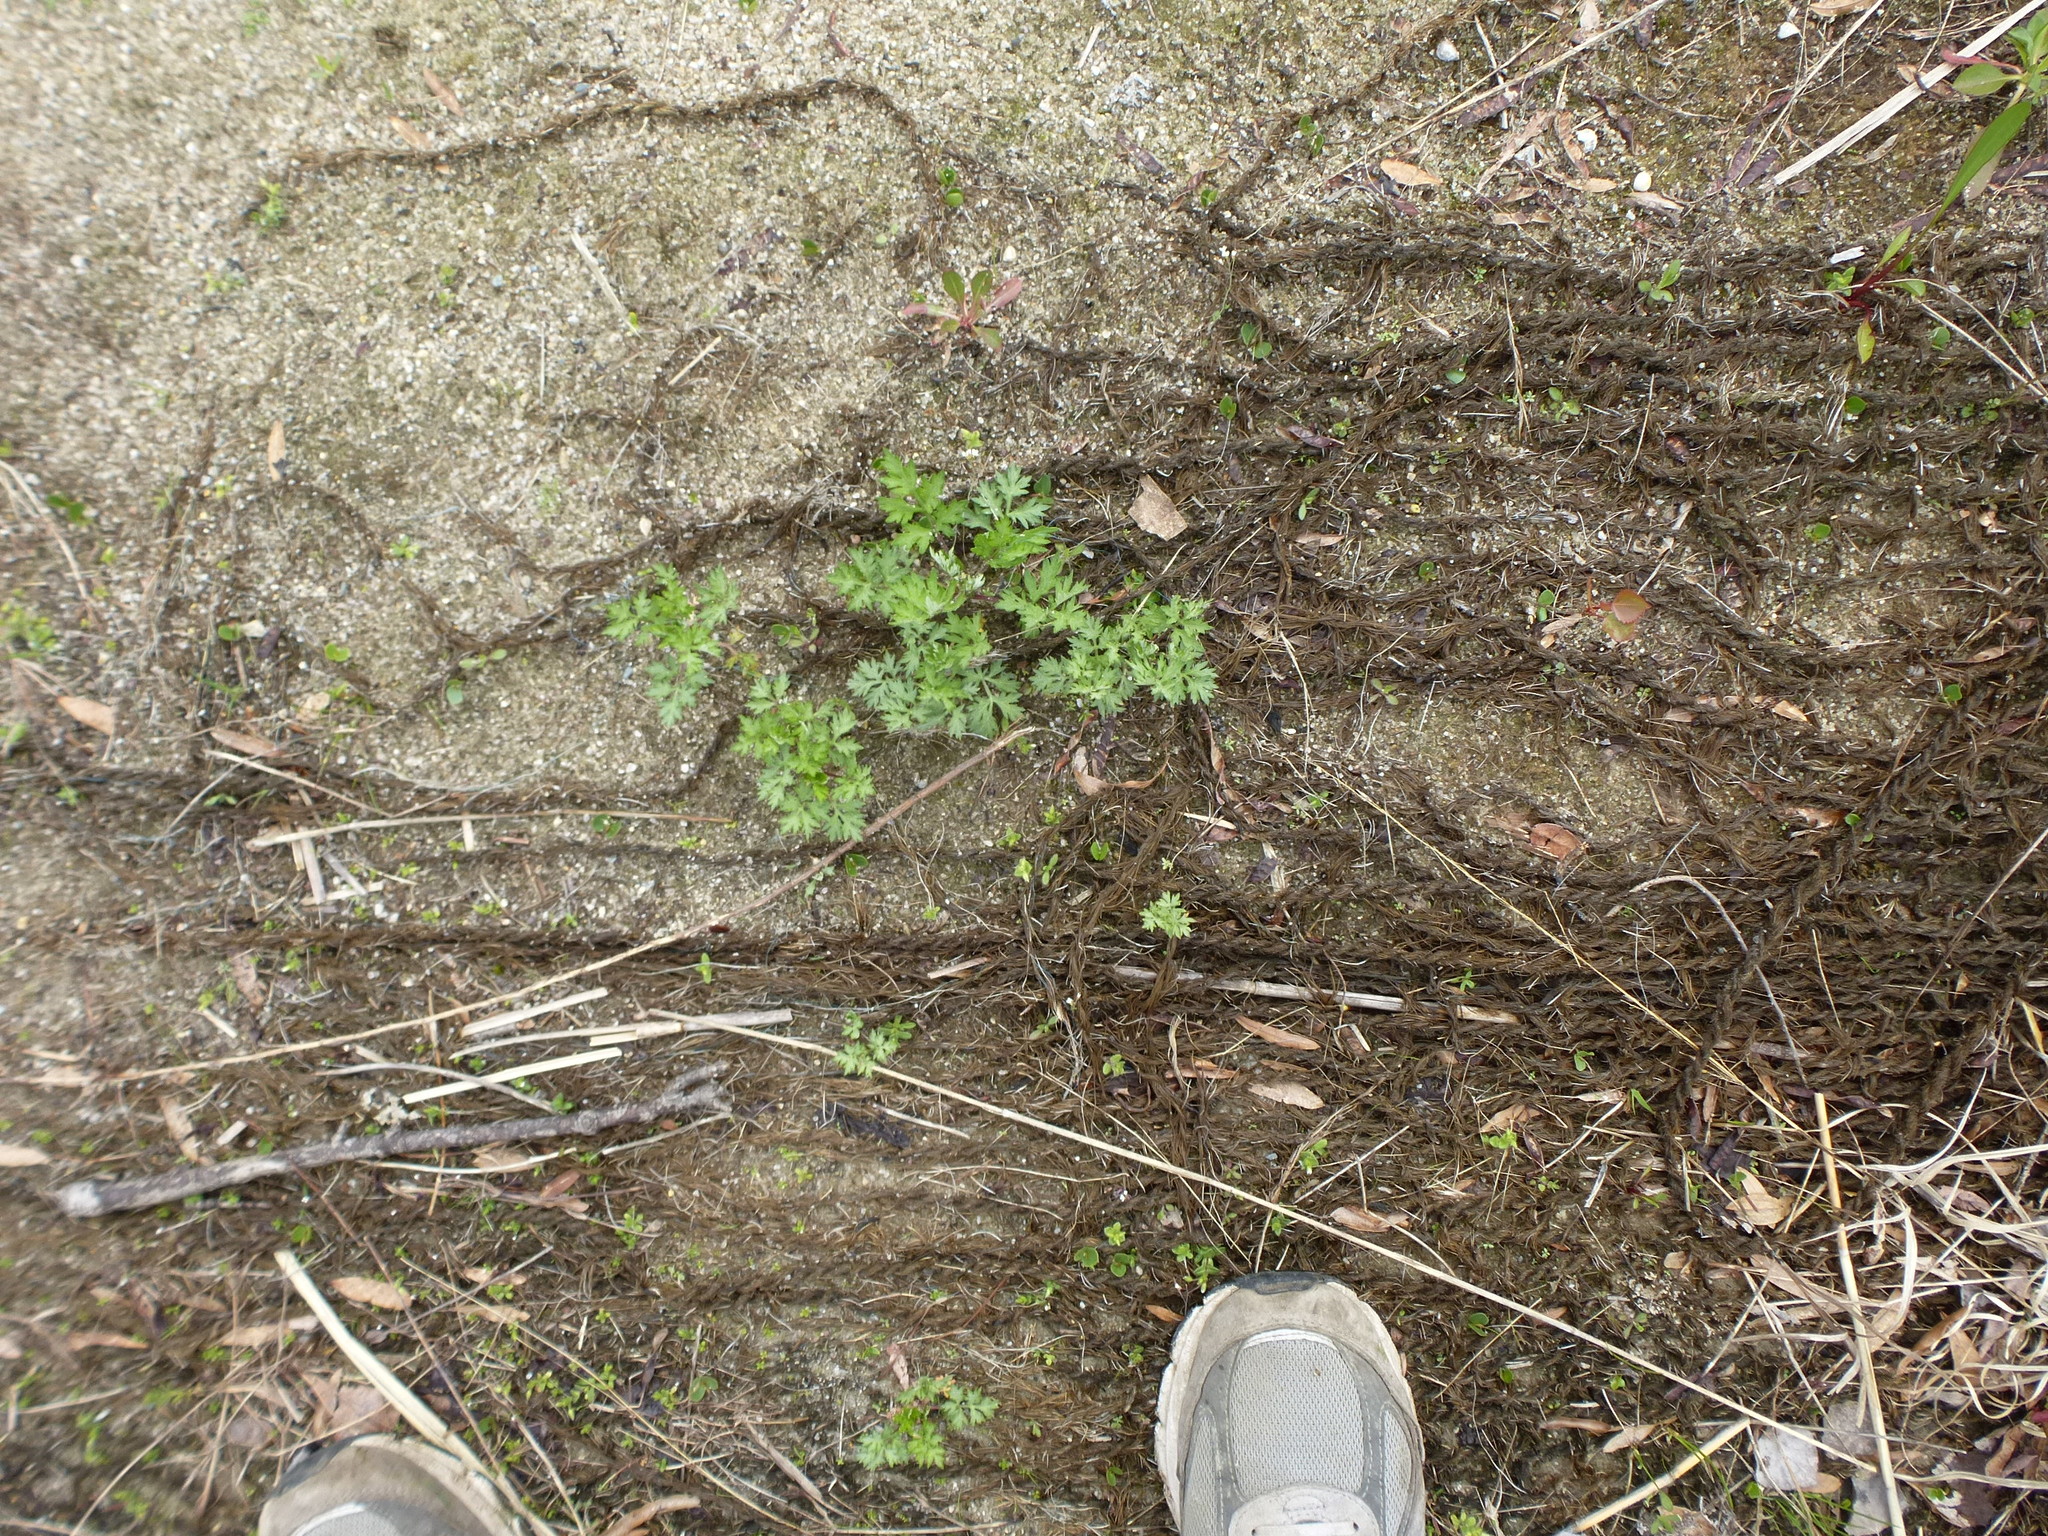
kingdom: Plantae
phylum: Tracheophyta
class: Magnoliopsida
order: Asterales
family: Asteraceae
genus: Artemisia
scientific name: Artemisia vulgaris
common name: Mugwort
